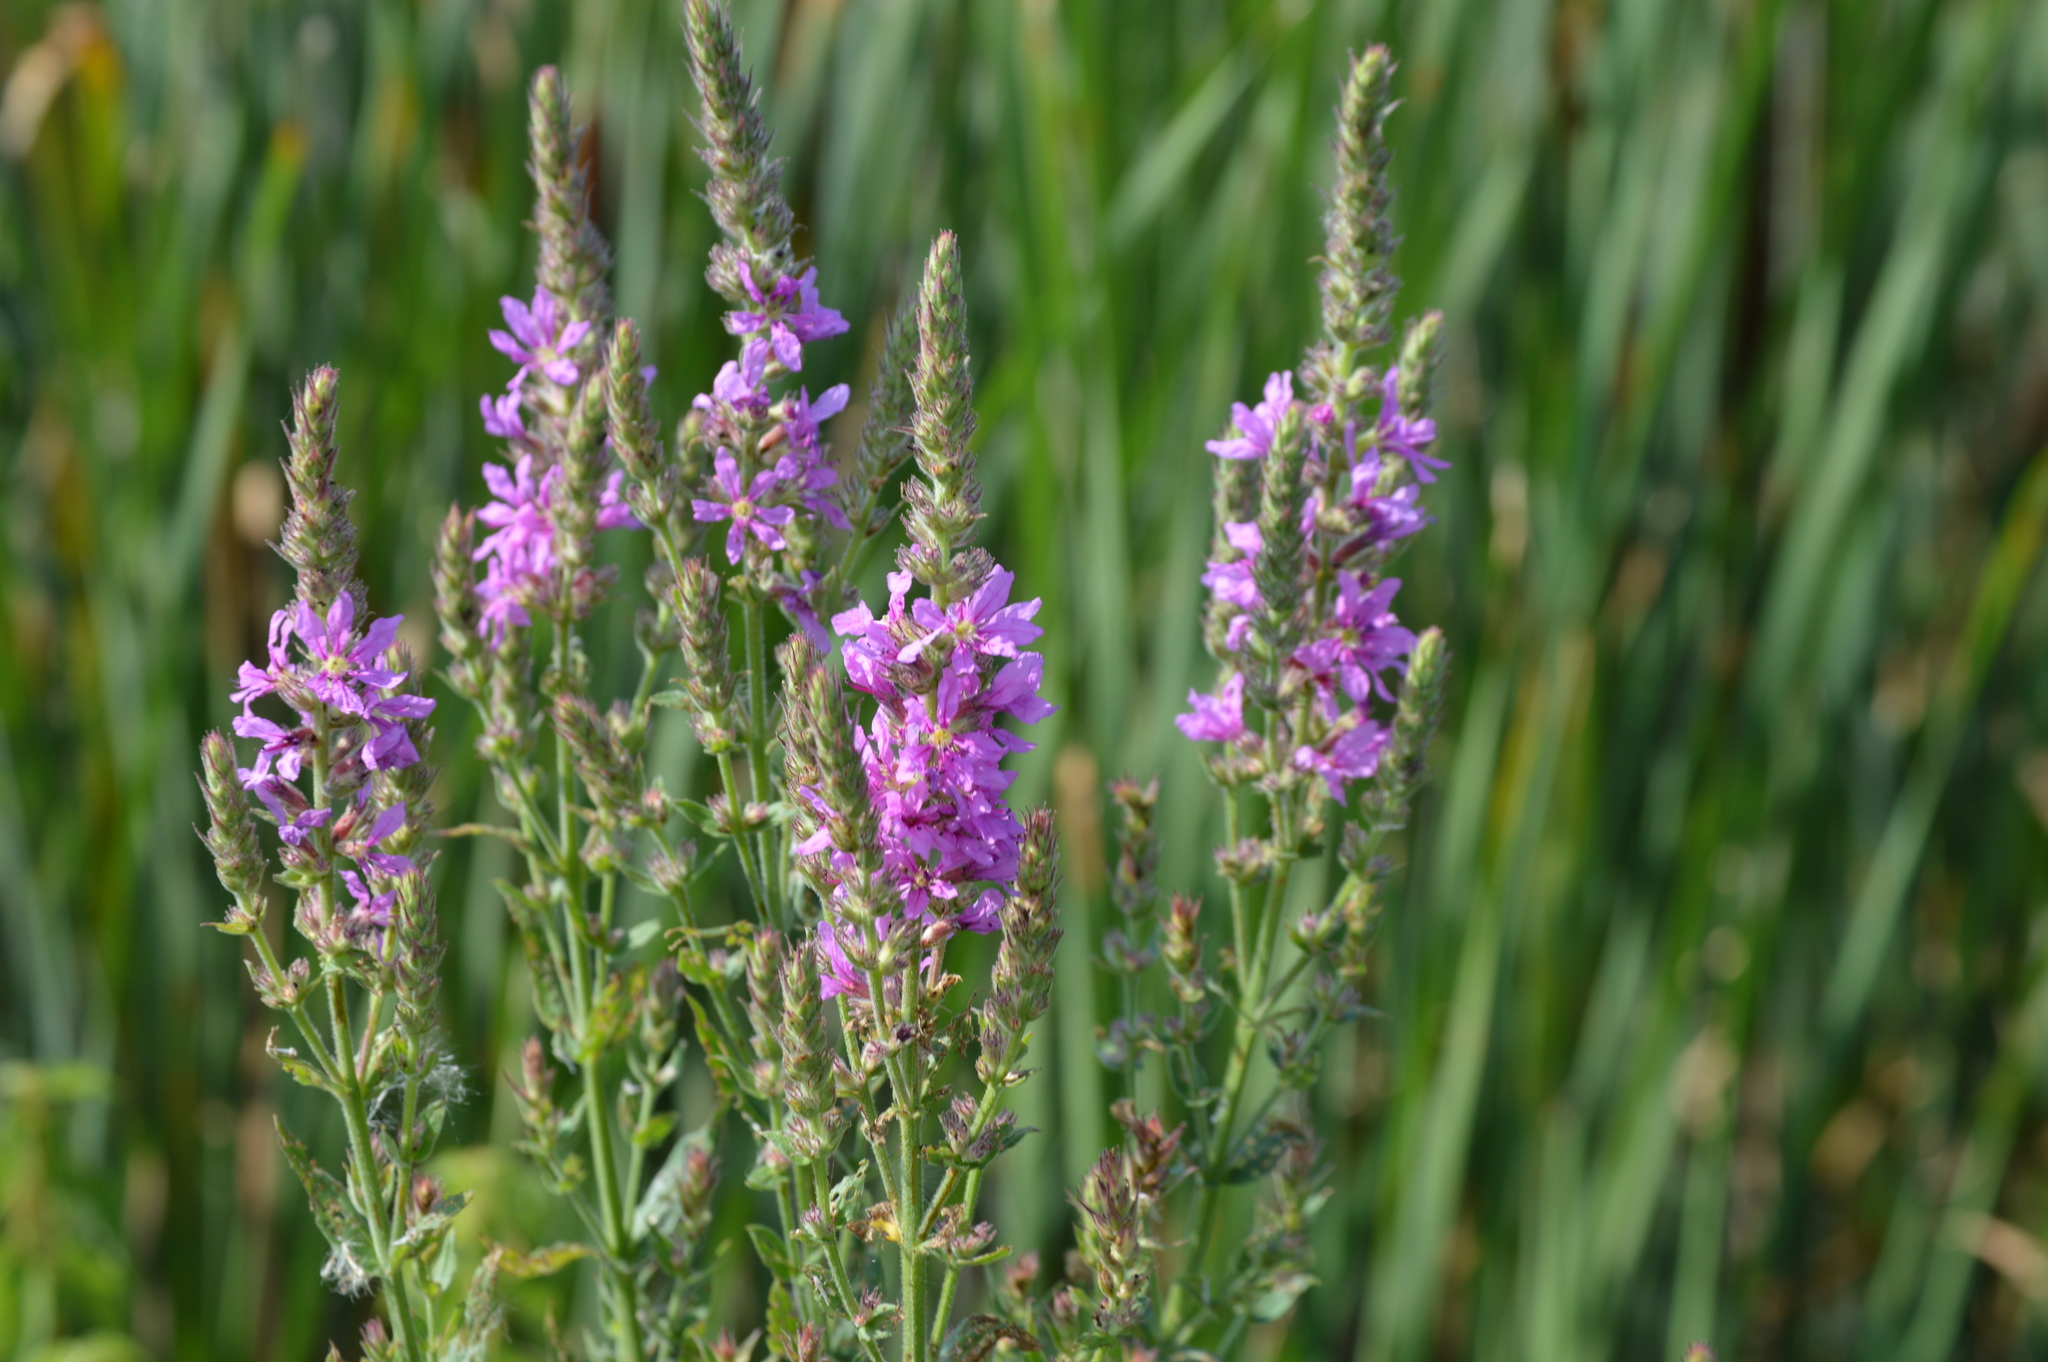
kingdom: Plantae
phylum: Tracheophyta
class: Magnoliopsida
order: Myrtales
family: Lythraceae
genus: Lythrum
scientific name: Lythrum salicaria
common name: Purple loosestrife
